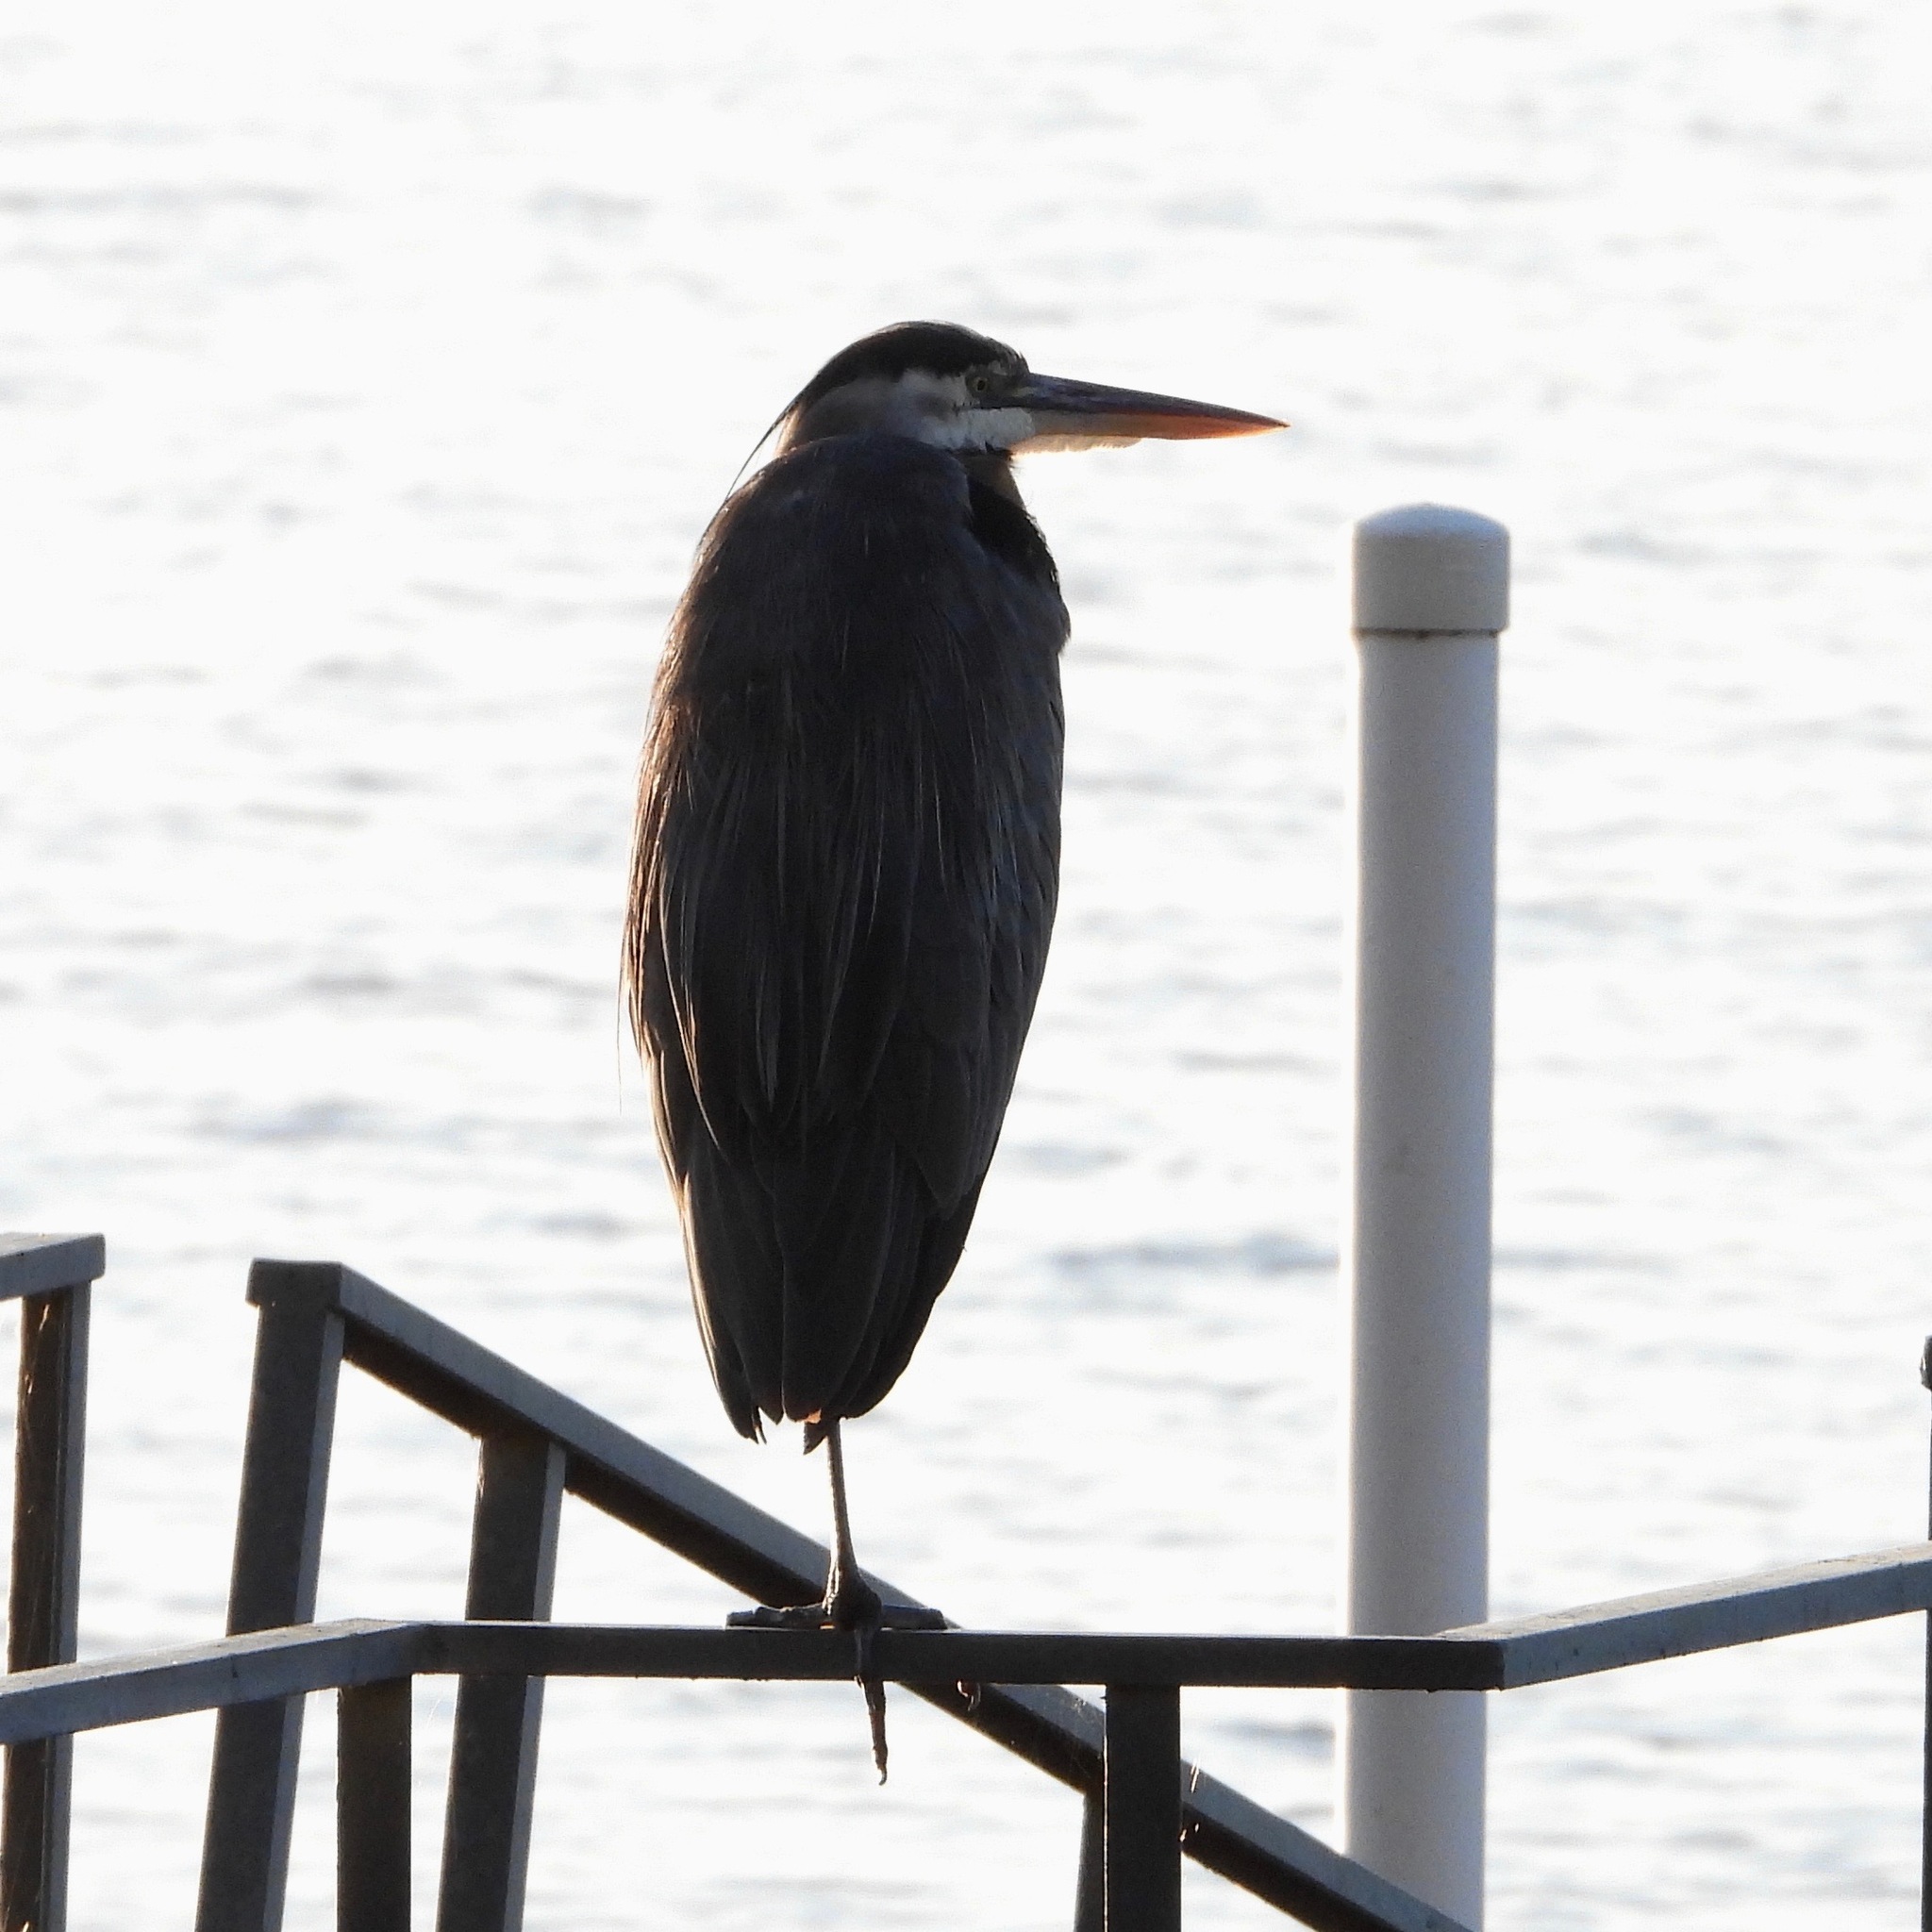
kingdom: Animalia
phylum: Chordata
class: Aves
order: Pelecaniformes
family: Ardeidae
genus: Ardea
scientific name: Ardea herodias
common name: Great blue heron
